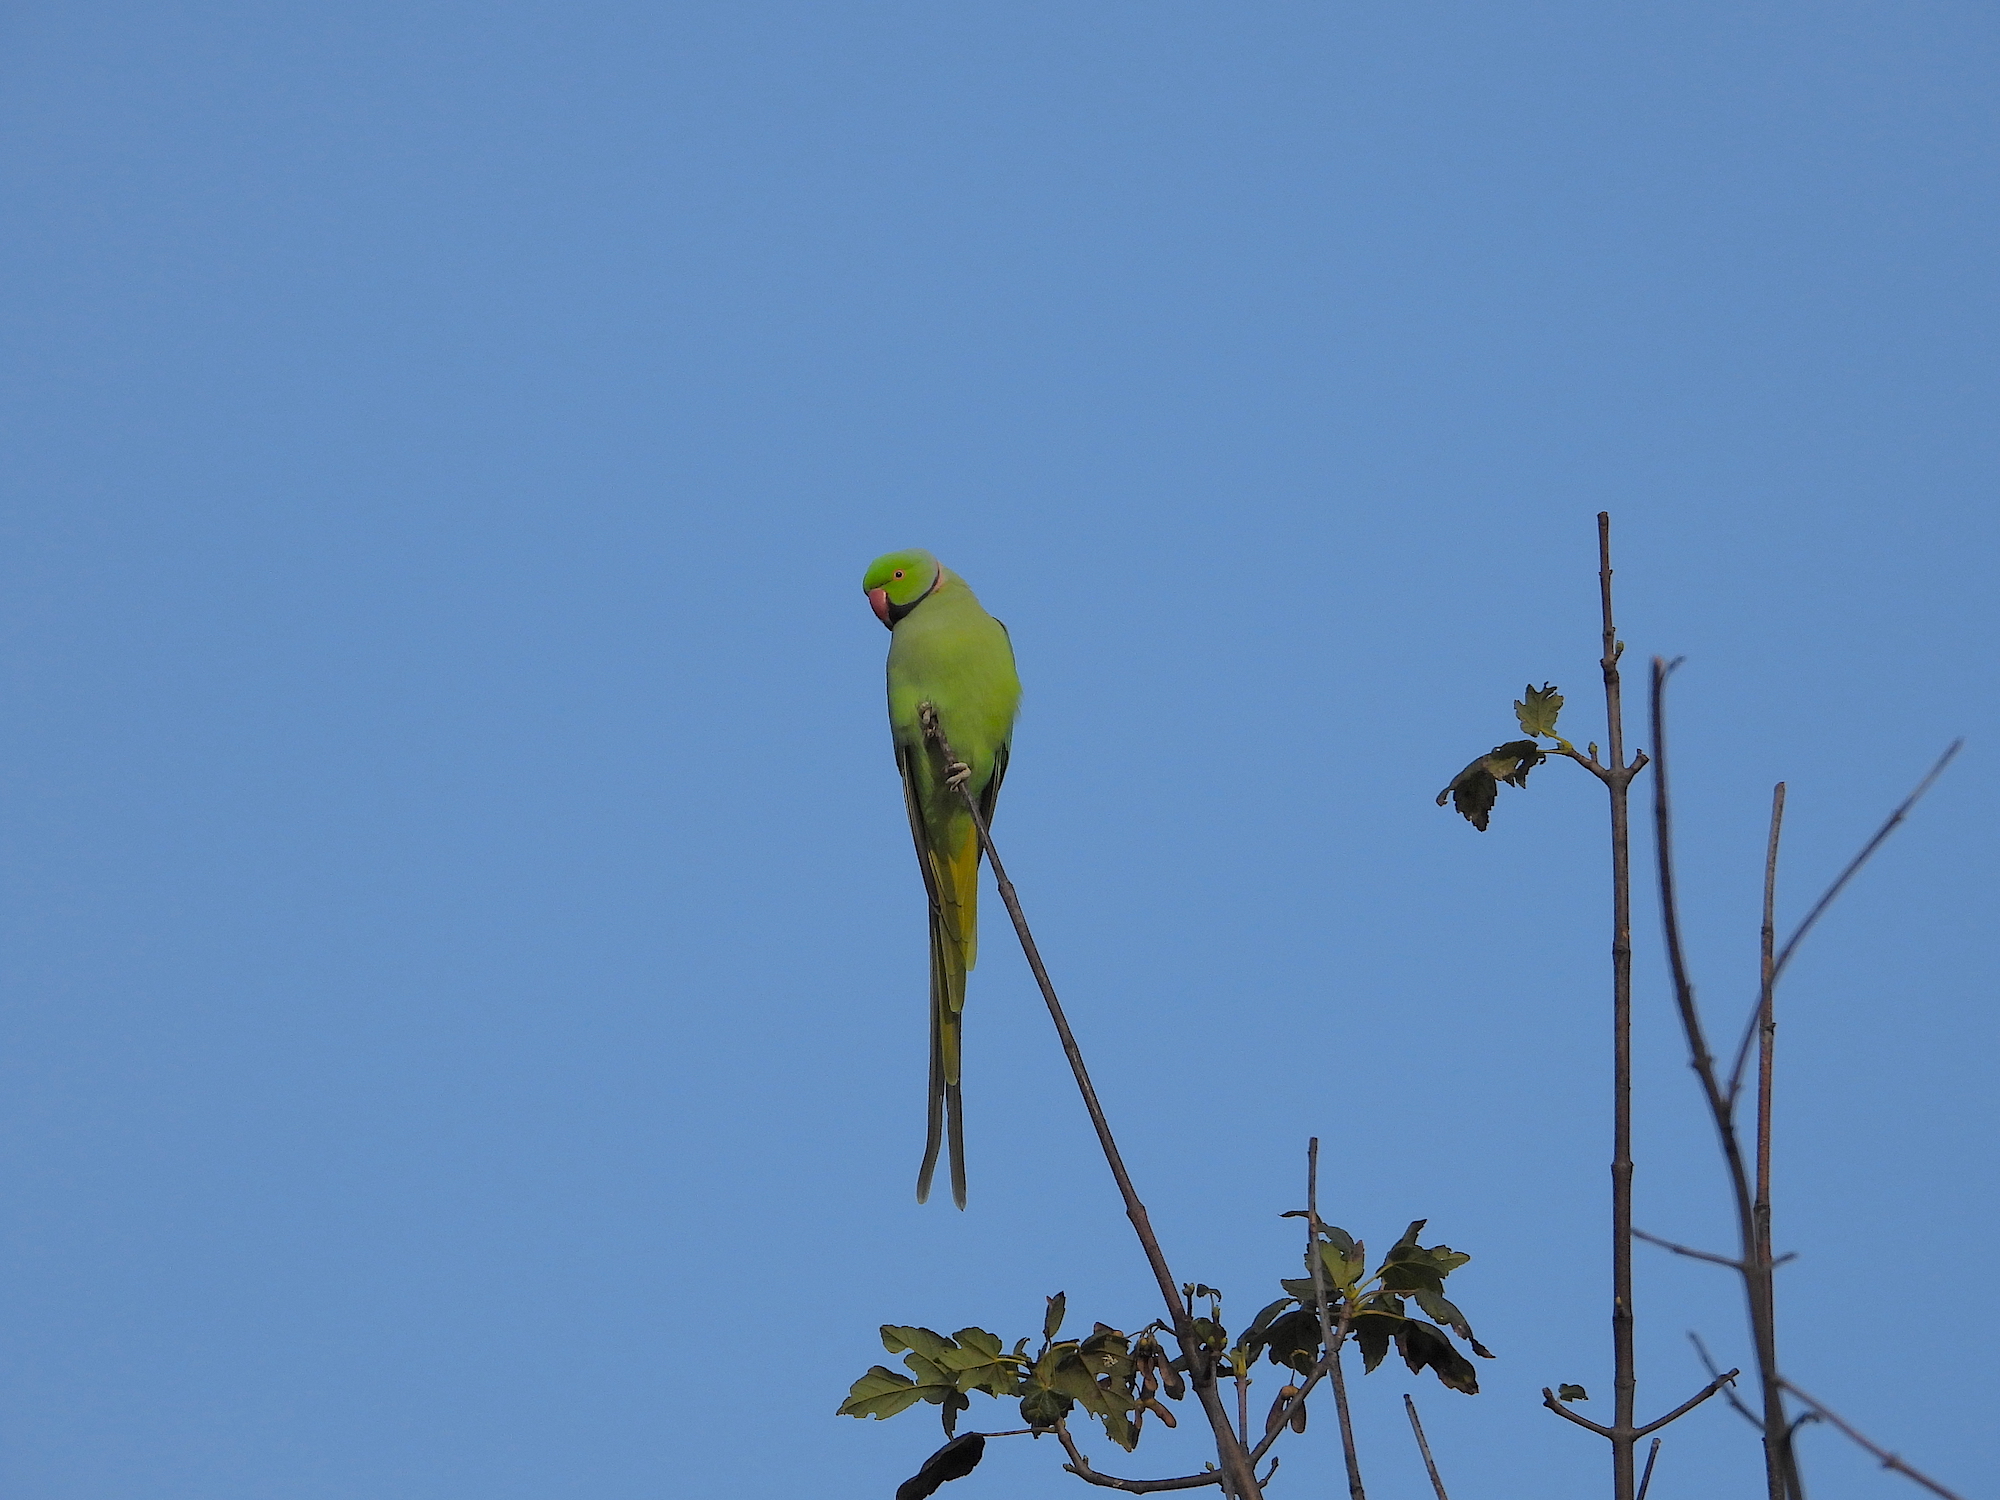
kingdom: Animalia
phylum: Chordata
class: Aves
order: Psittaciformes
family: Psittacidae
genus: Psittacula
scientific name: Psittacula krameri
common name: Rose-ringed parakeet
